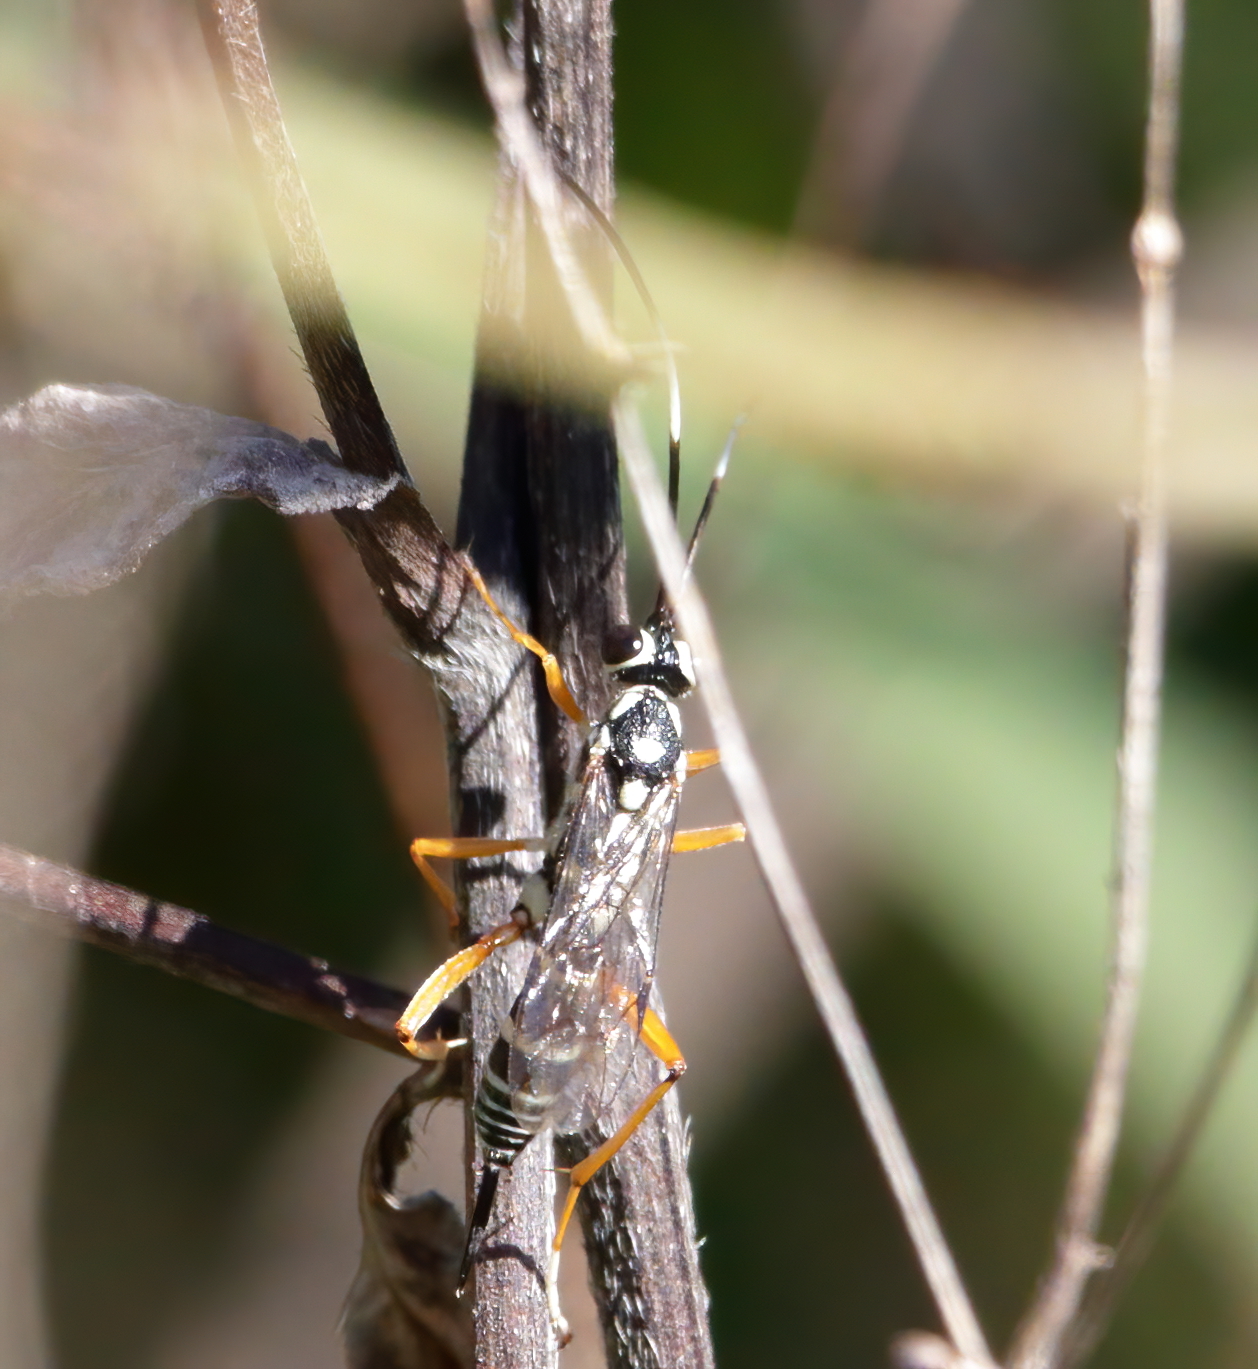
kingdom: Animalia
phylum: Arthropoda
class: Insecta
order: Hymenoptera
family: Ichneumonidae
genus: Agonocryptus
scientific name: Agonocryptus chichimecus
